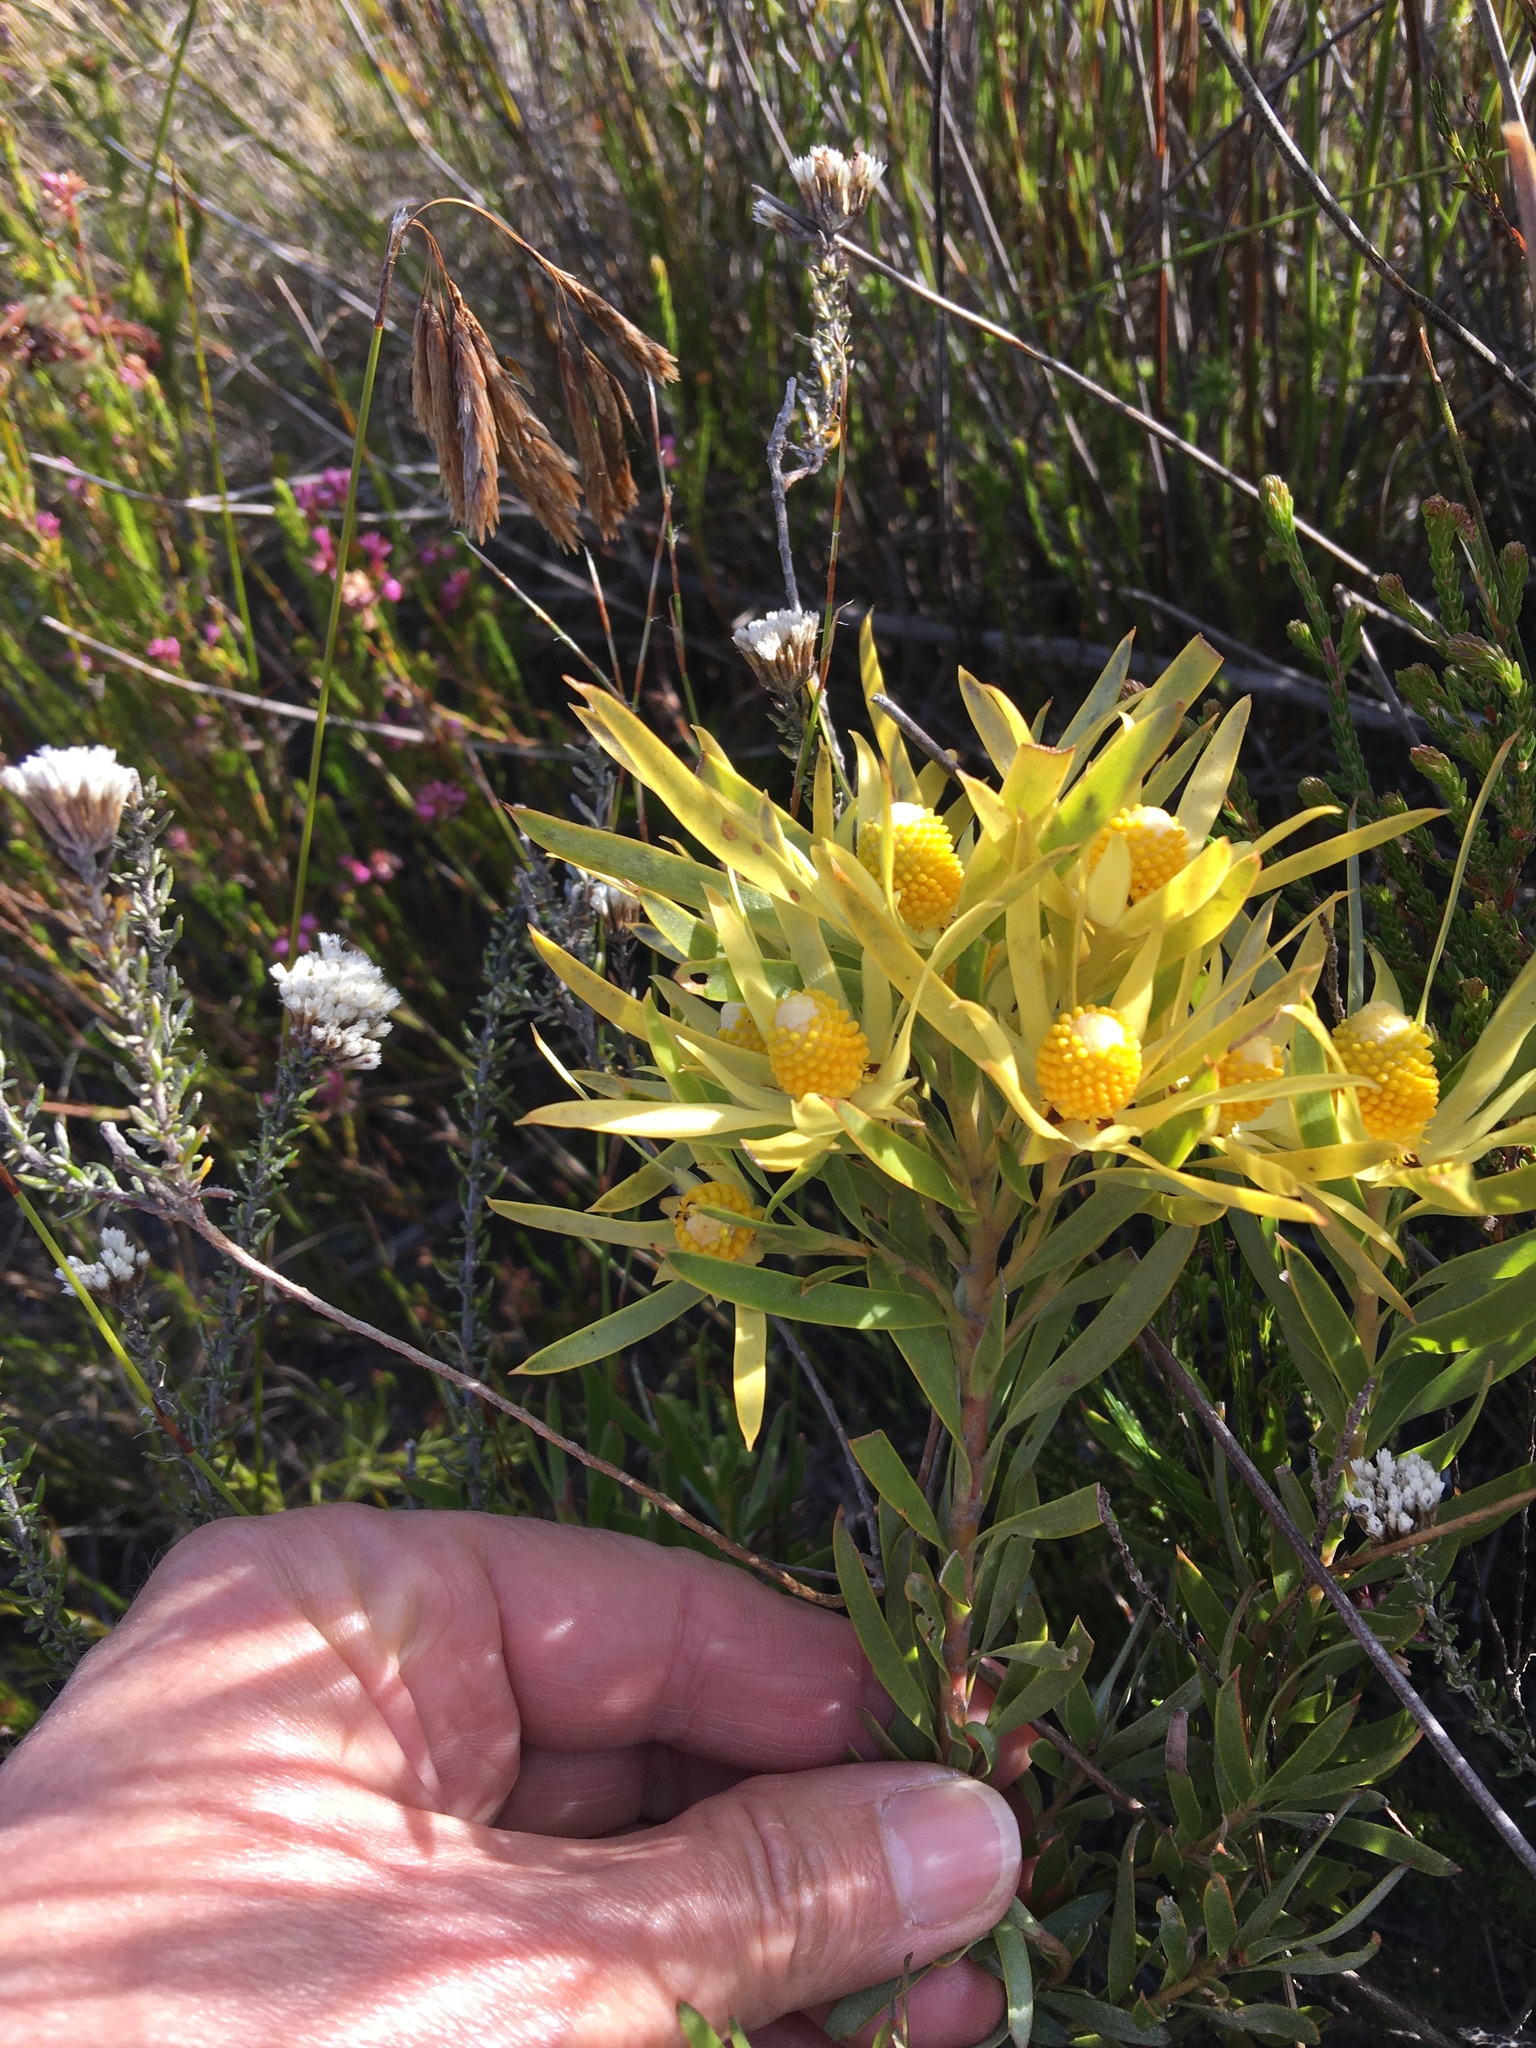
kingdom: Plantae
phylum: Tracheophyta
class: Magnoliopsida
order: Proteales
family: Proteaceae
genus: Leucadendron
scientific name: Leucadendron xanthoconus
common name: Sickle-leaf conebush
